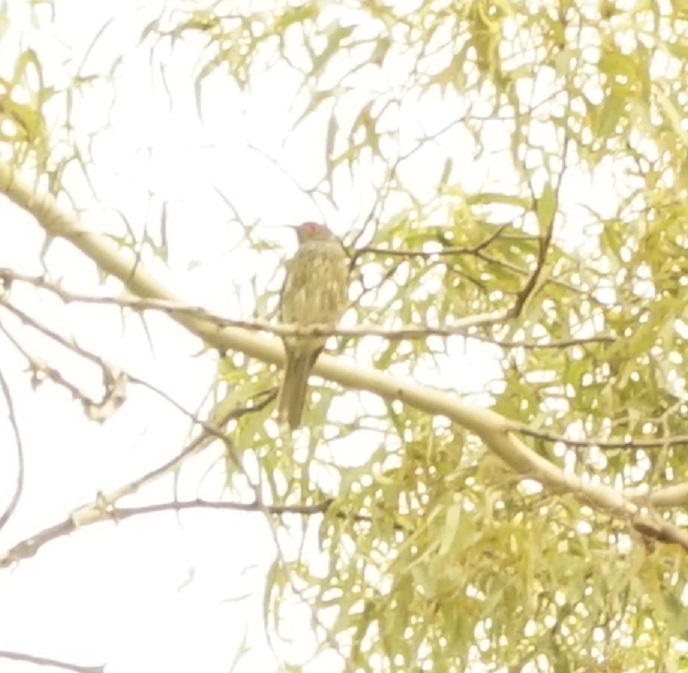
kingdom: Animalia
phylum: Chordata
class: Aves
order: Passeriformes
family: Oriolidae
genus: Sphecotheres
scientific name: Sphecotheres vieilloti
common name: Australasian figbird
